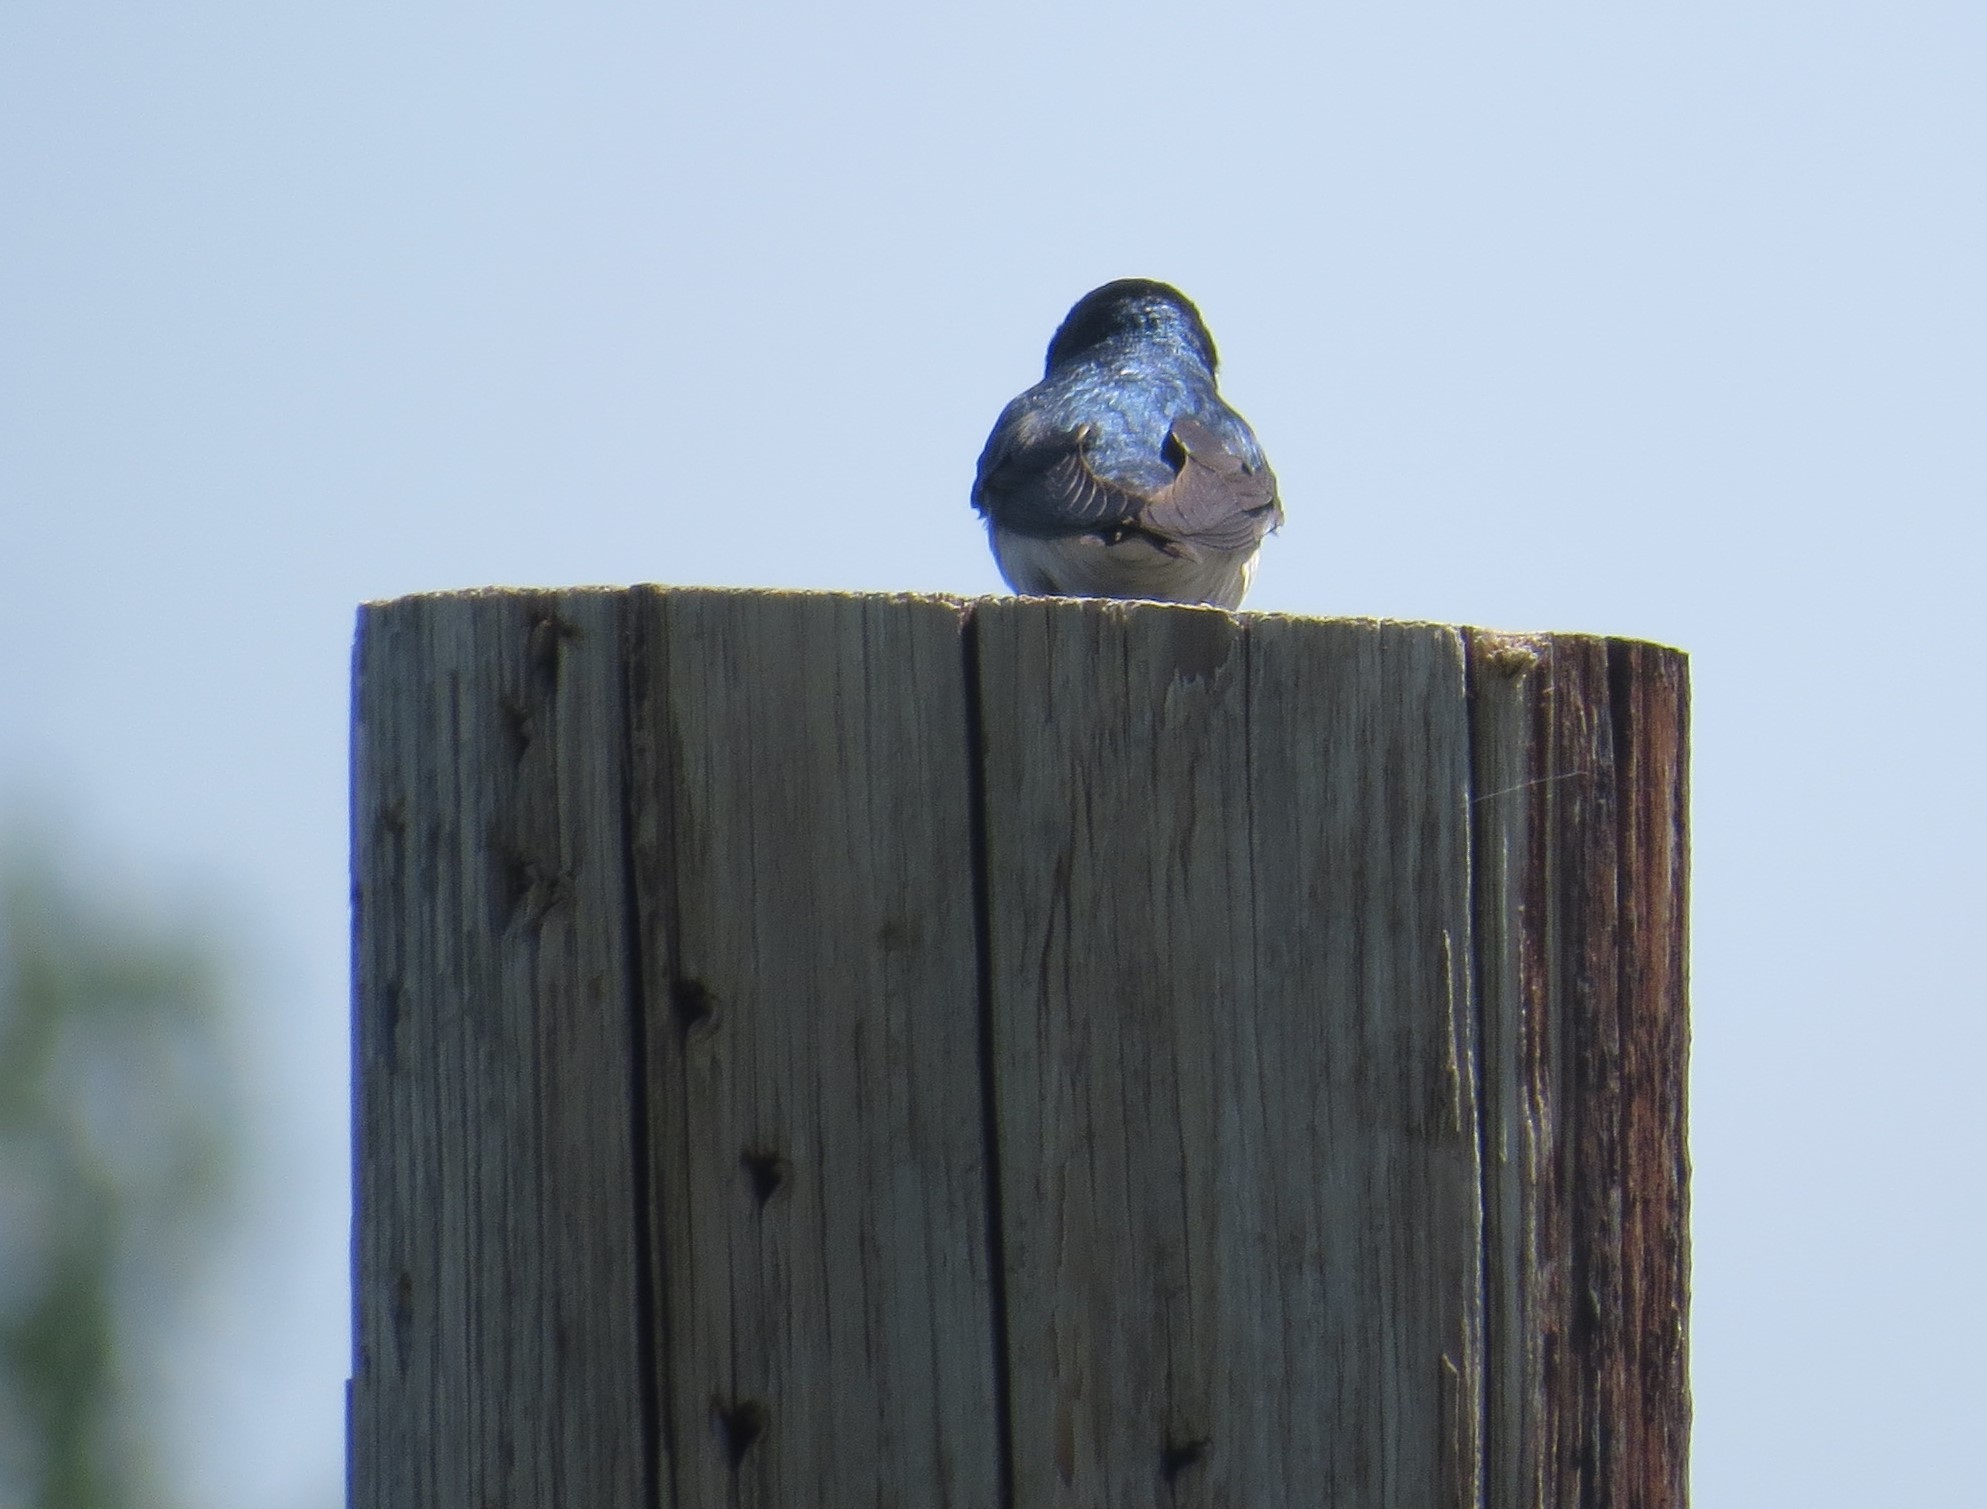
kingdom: Animalia
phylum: Chordata
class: Aves
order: Passeriformes
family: Hirundinidae
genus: Tachycineta
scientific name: Tachycineta bicolor
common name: Tree swallow
